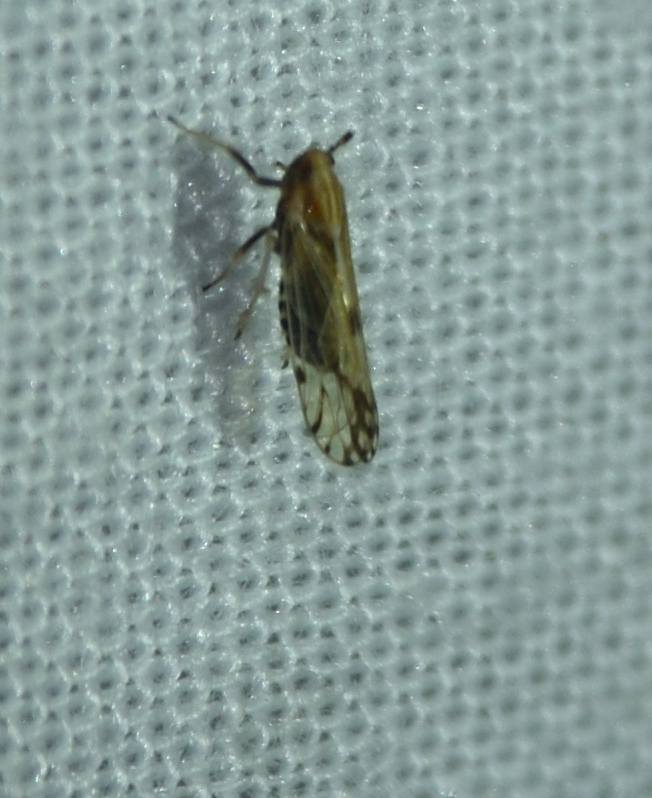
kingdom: Animalia
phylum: Arthropoda
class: Insecta
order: Hemiptera
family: Delphacidae
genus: Peregrinus
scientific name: Peregrinus maidis
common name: Corn leafhopper
